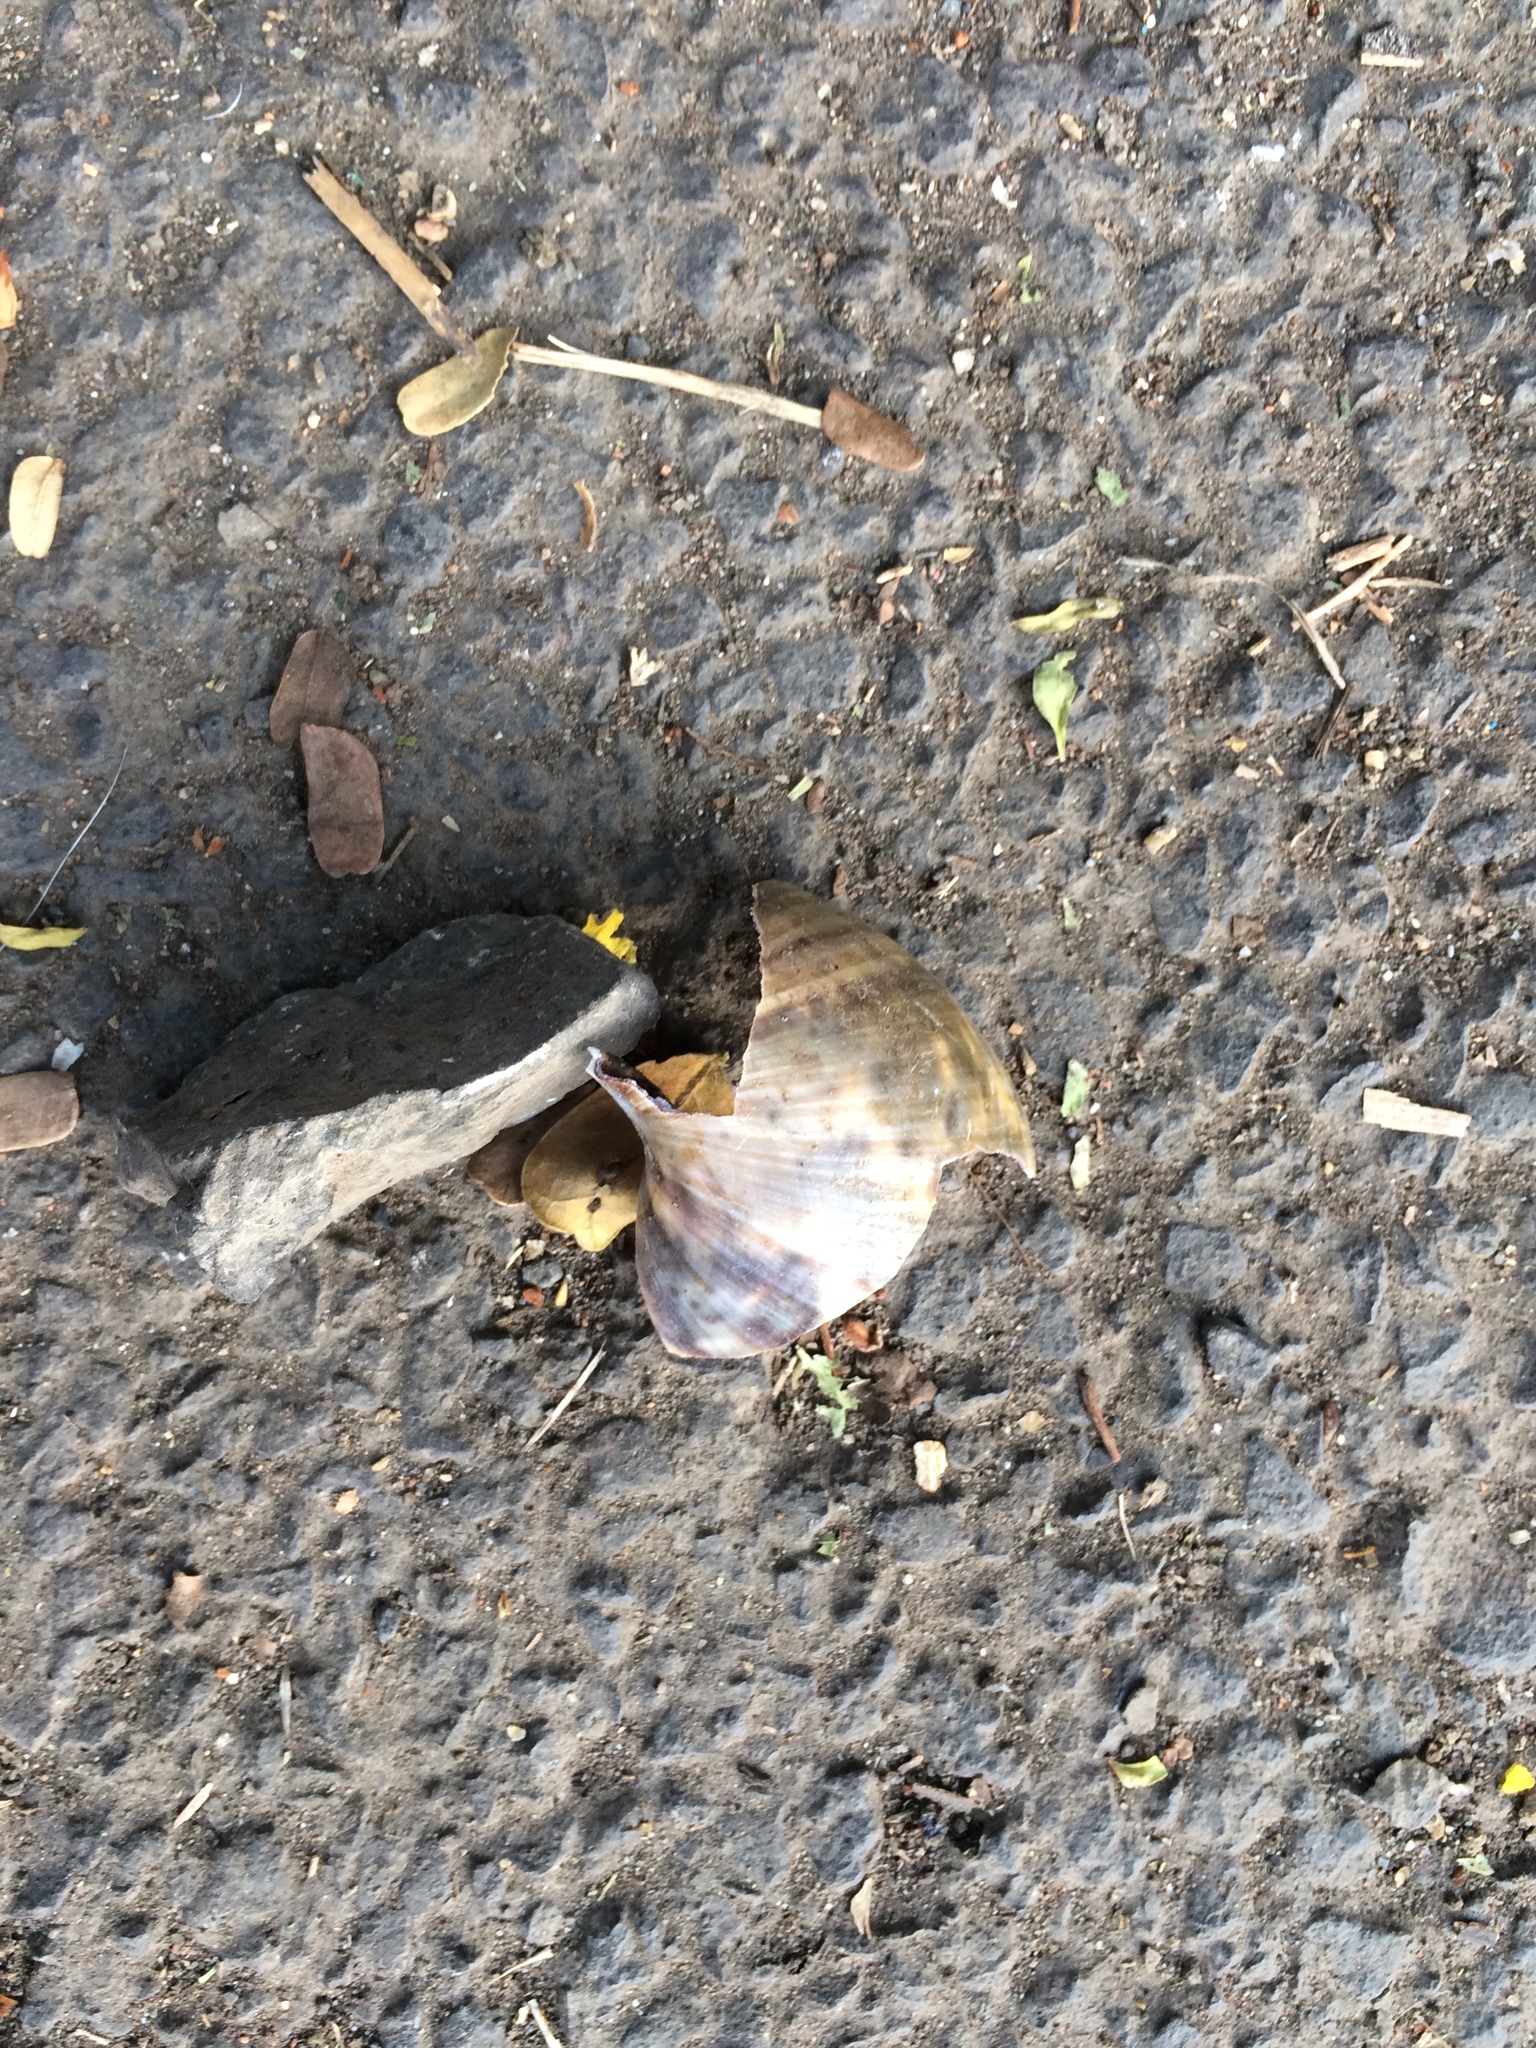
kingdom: Animalia
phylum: Mollusca
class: Gastropoda
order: Stylommatophora
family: Achatinidae
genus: Lissachatina
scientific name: Lissachatina fulica
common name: Giant african snail
